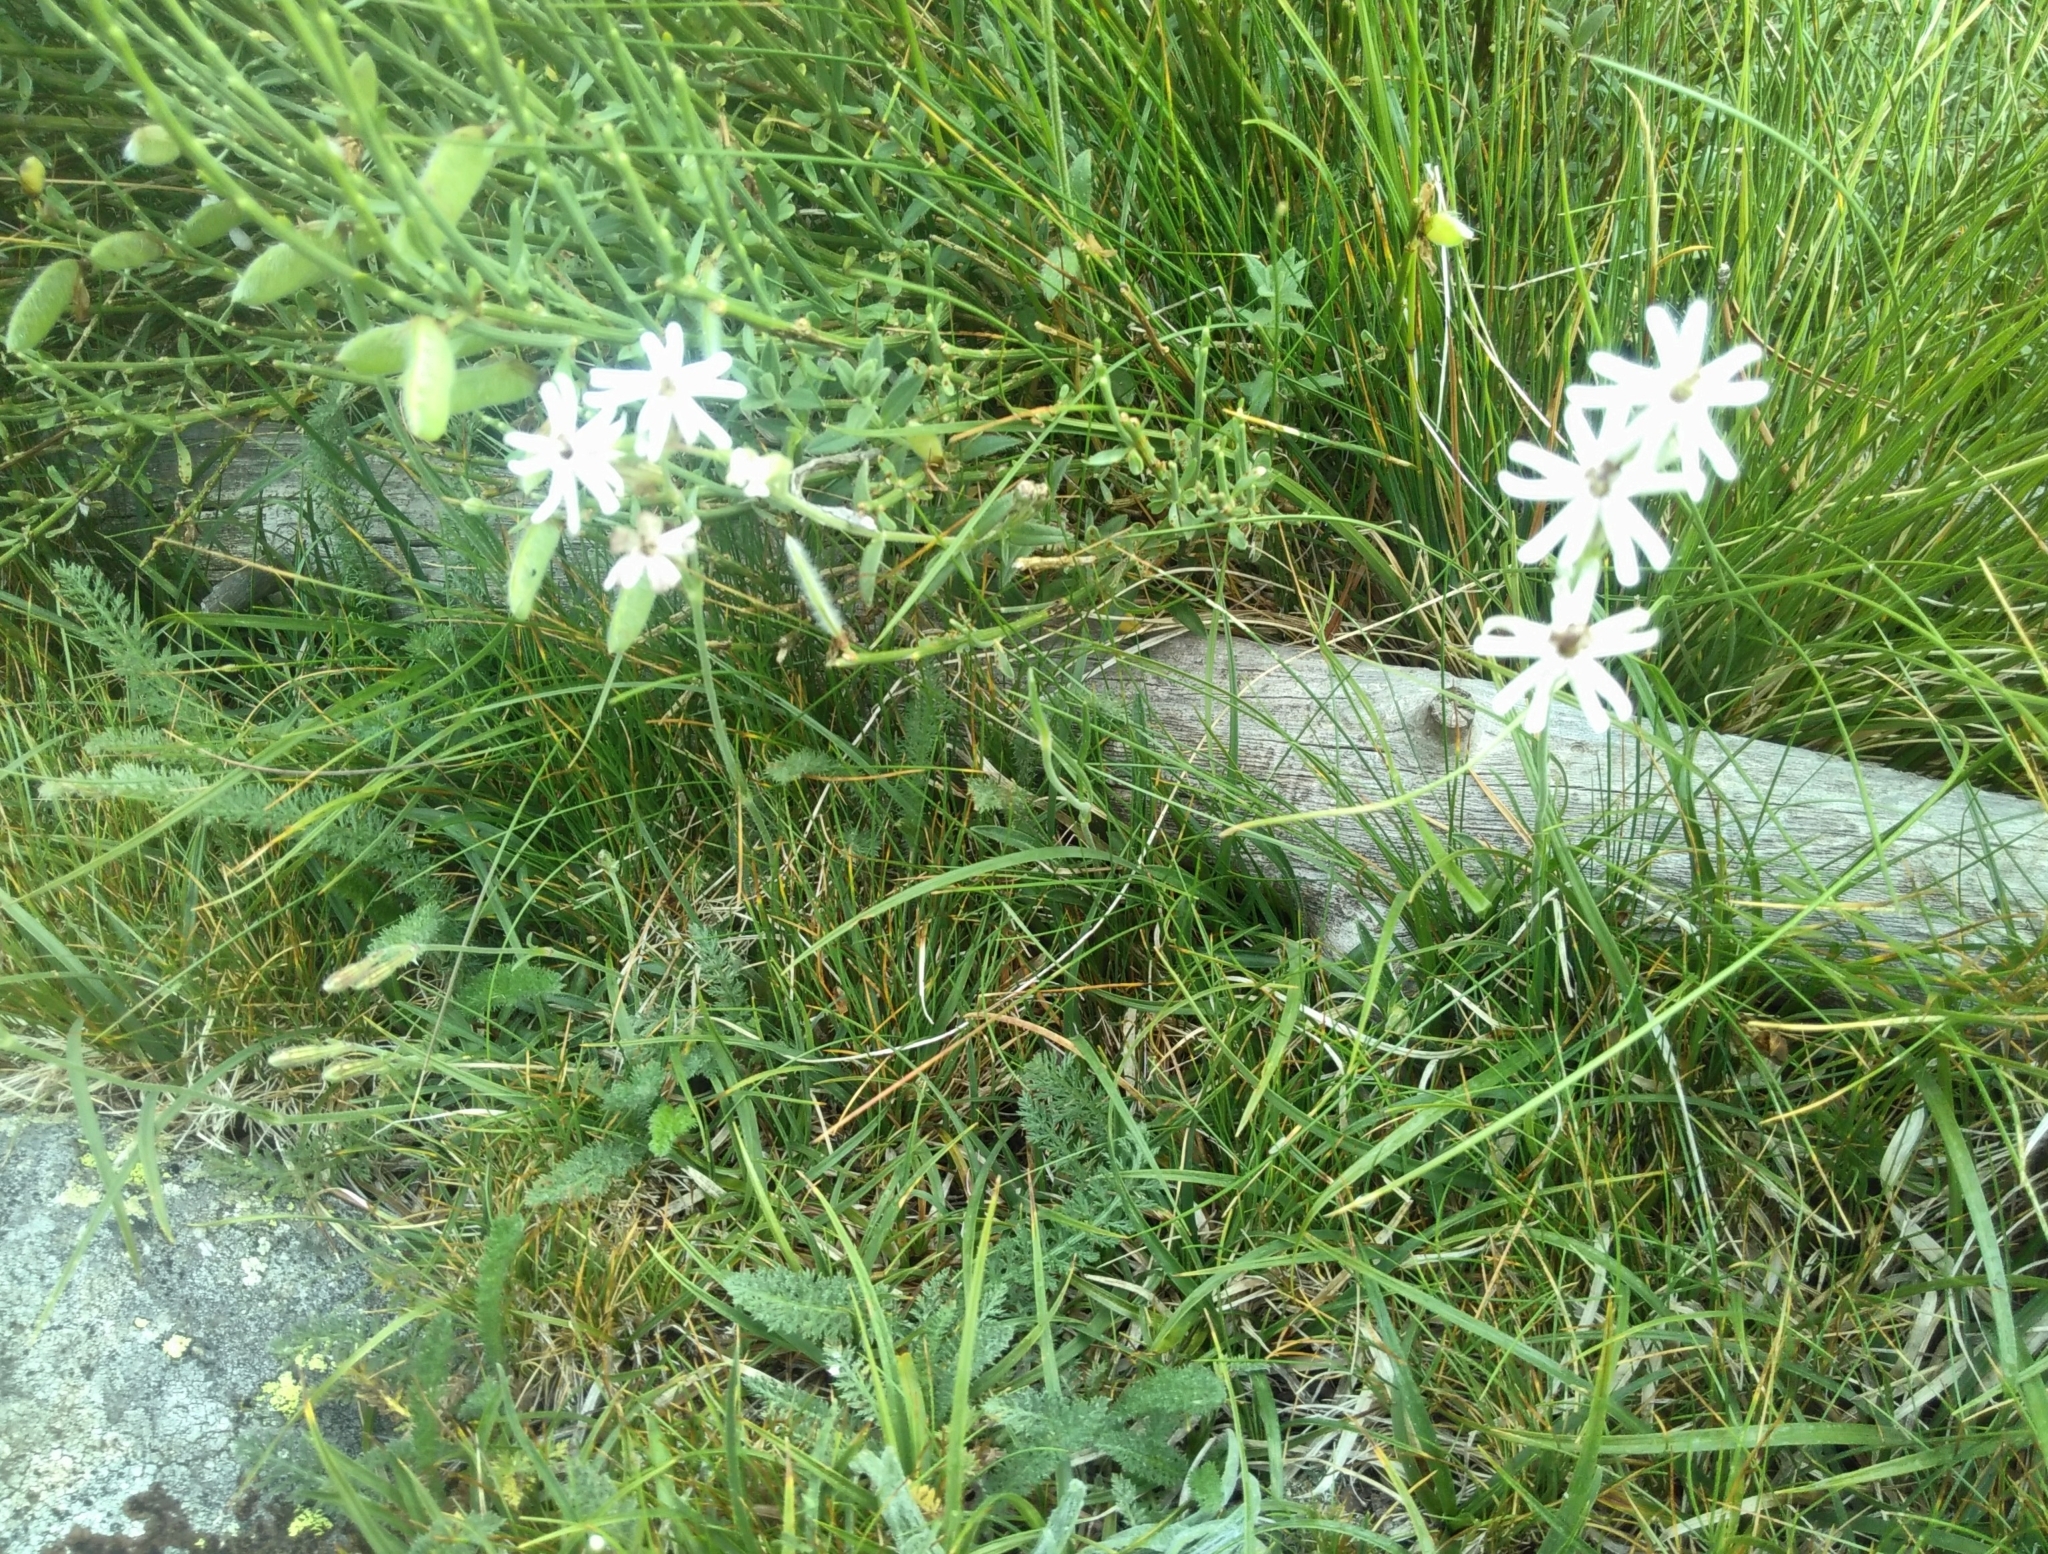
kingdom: Plantae
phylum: Tracheophyta
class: Magnoliopsida
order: Caryophyllales
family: Caryophyllaceae
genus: Silene
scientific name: Silene ciliata
